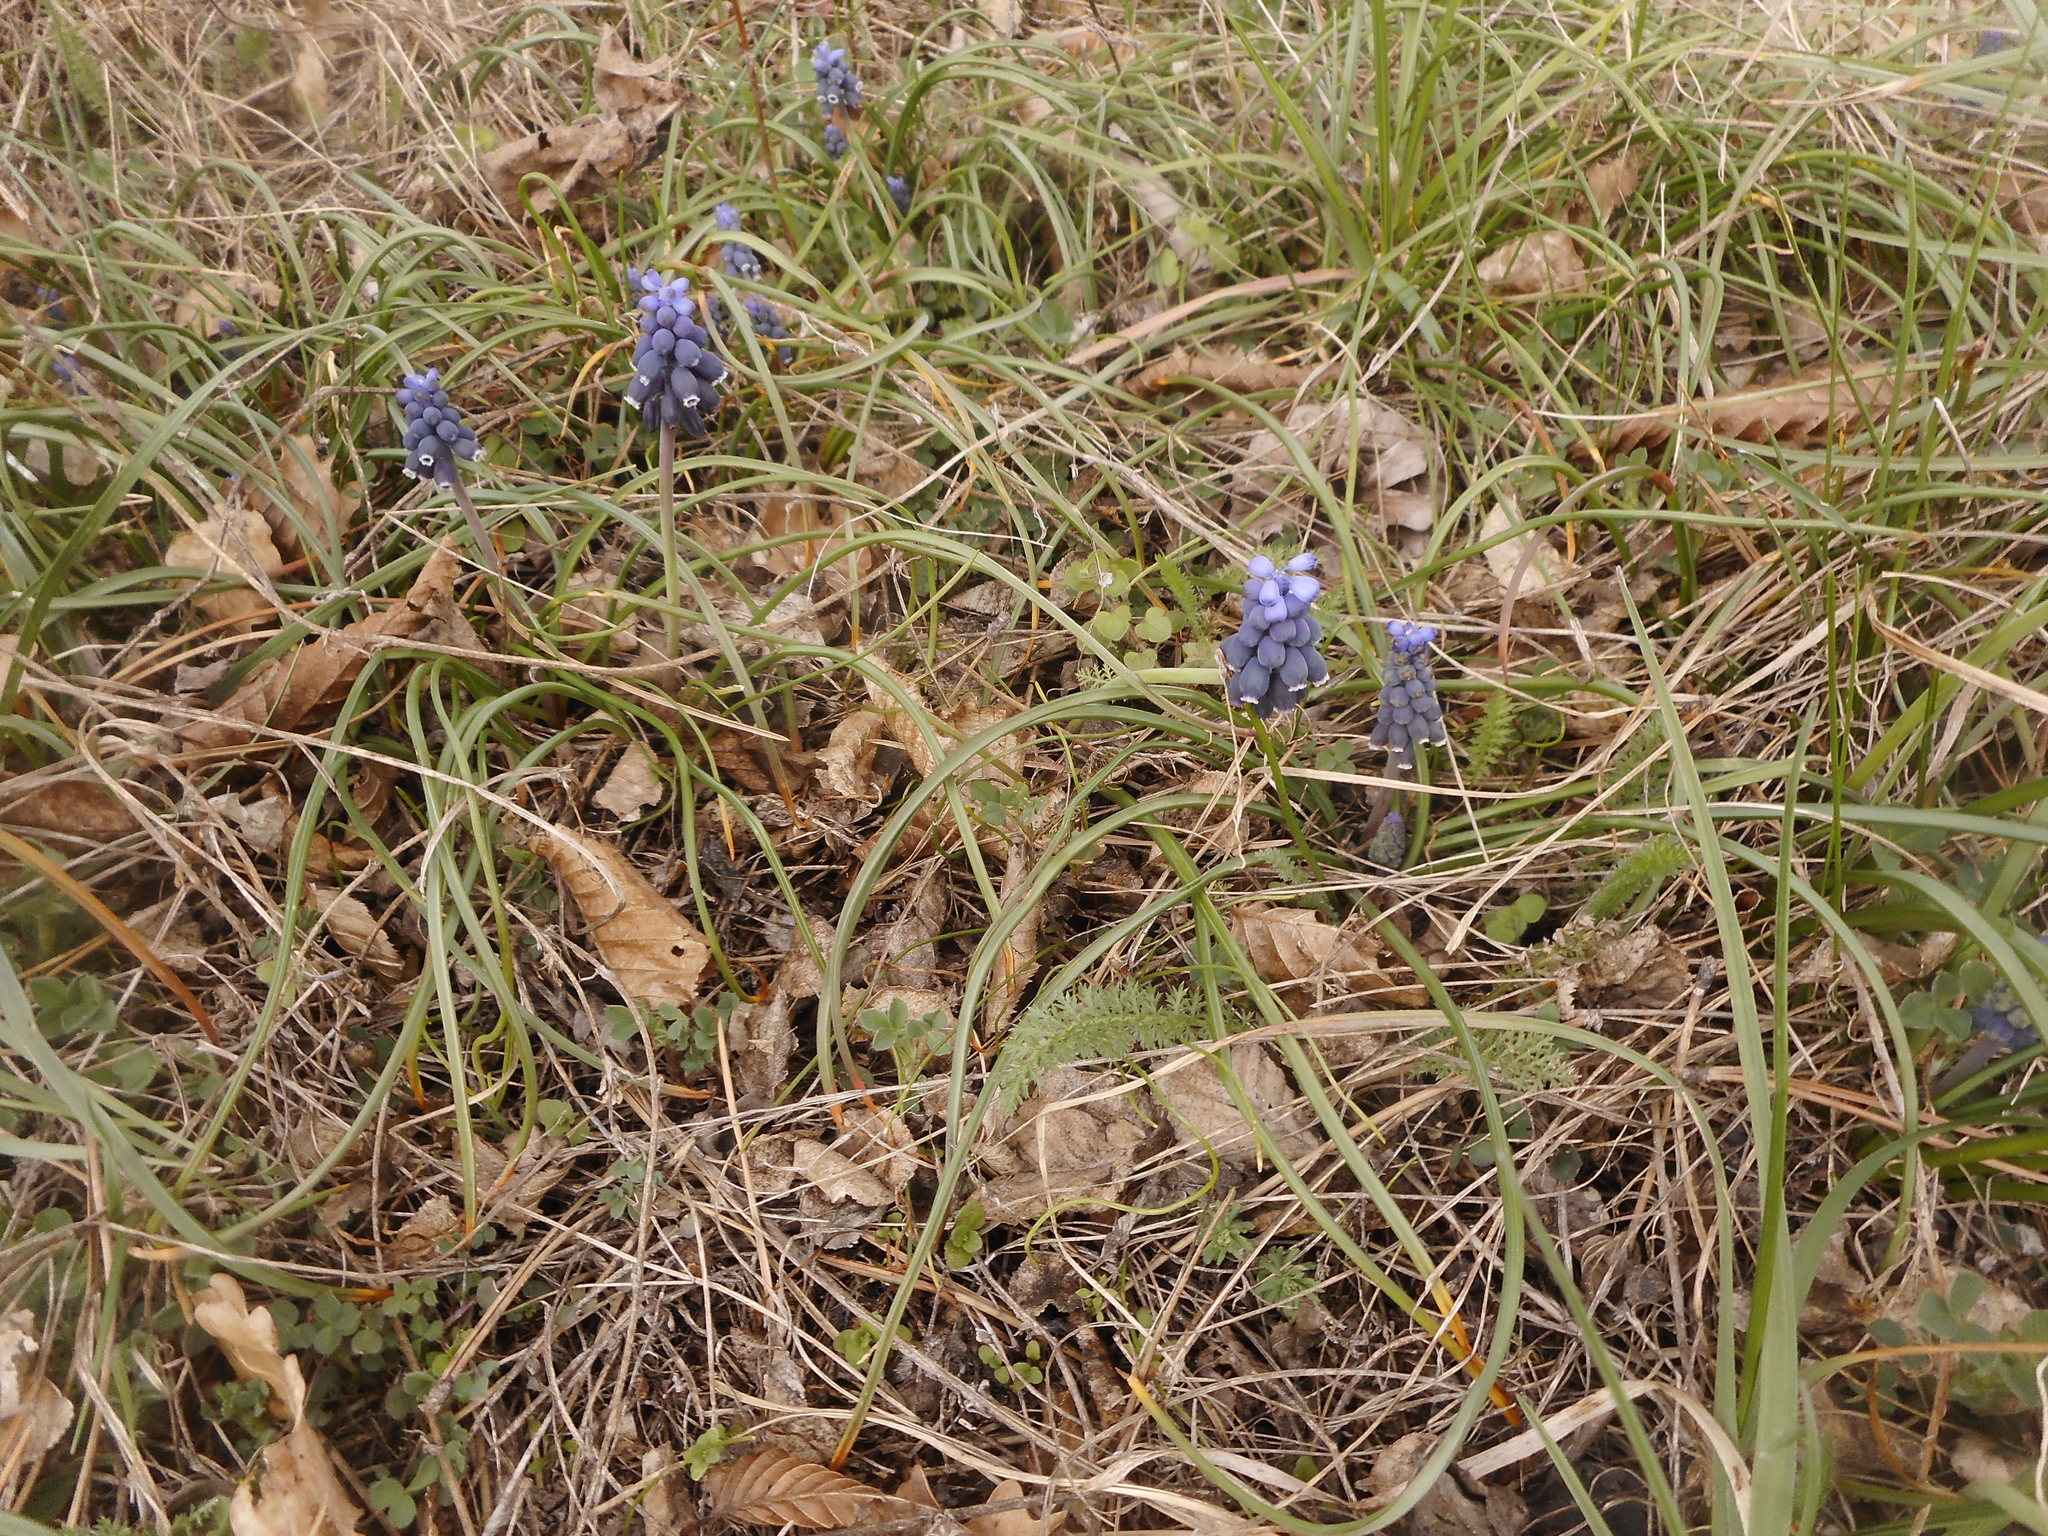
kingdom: Plantae
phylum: Tracheophyta
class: Liliopsida
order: Asparagales
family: Asparagaceae
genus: Muscari
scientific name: Muscari neglectum
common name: Grape-hyacinth
